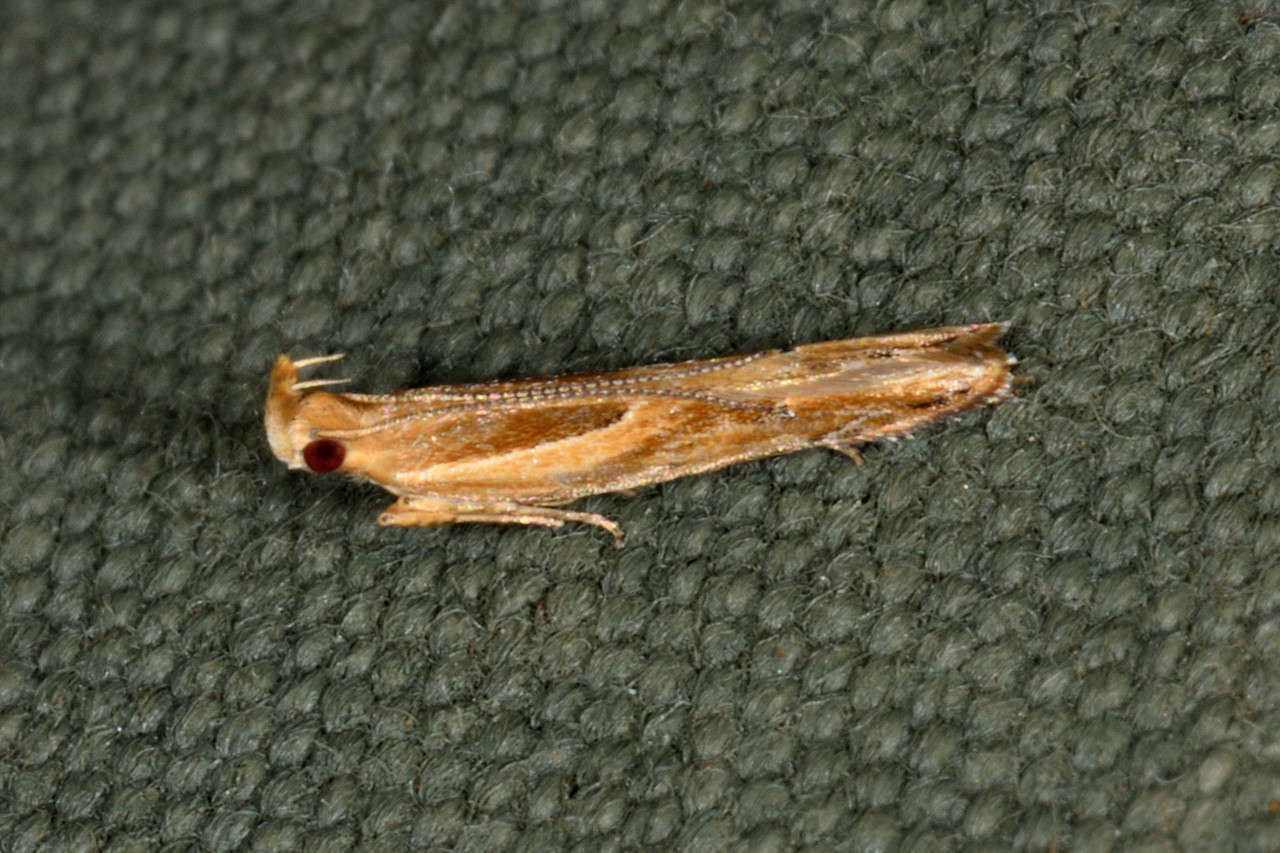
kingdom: Animalia
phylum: Arthropoda
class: Insecta
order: Lepidoptera
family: Depressariidae
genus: Eutorna
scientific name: Eutorna tricasis
